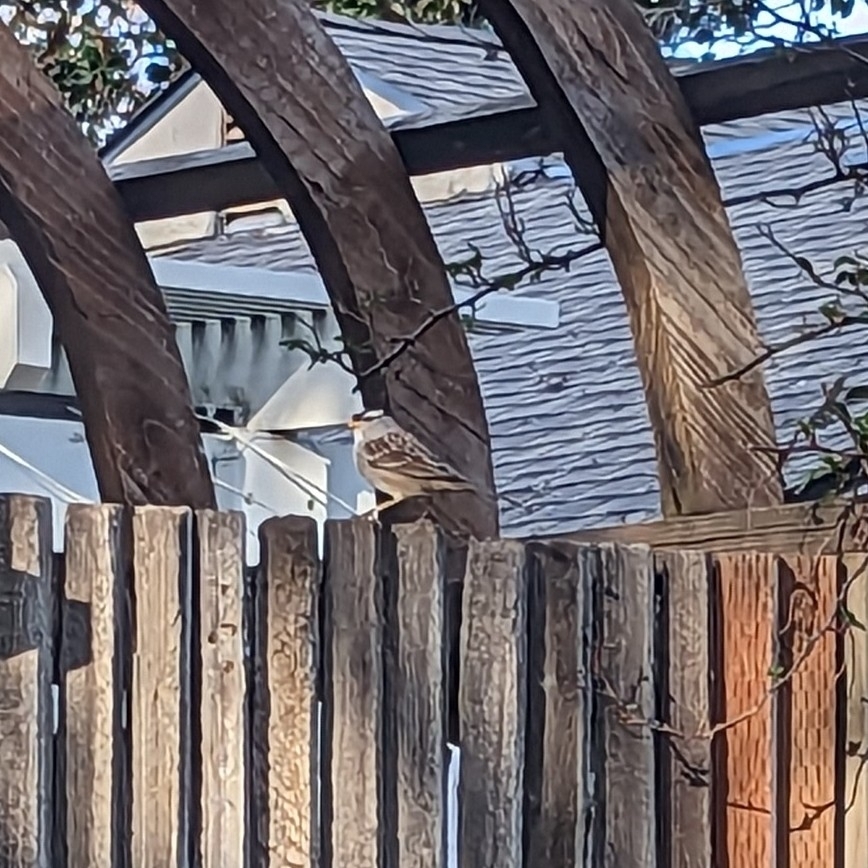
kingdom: Animalia
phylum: Chordata
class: Aves
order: Passeriformes
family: Passerellidae
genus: Zonotrichia
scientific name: Zonotrichia leucophrys
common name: White-crowned sparrow
